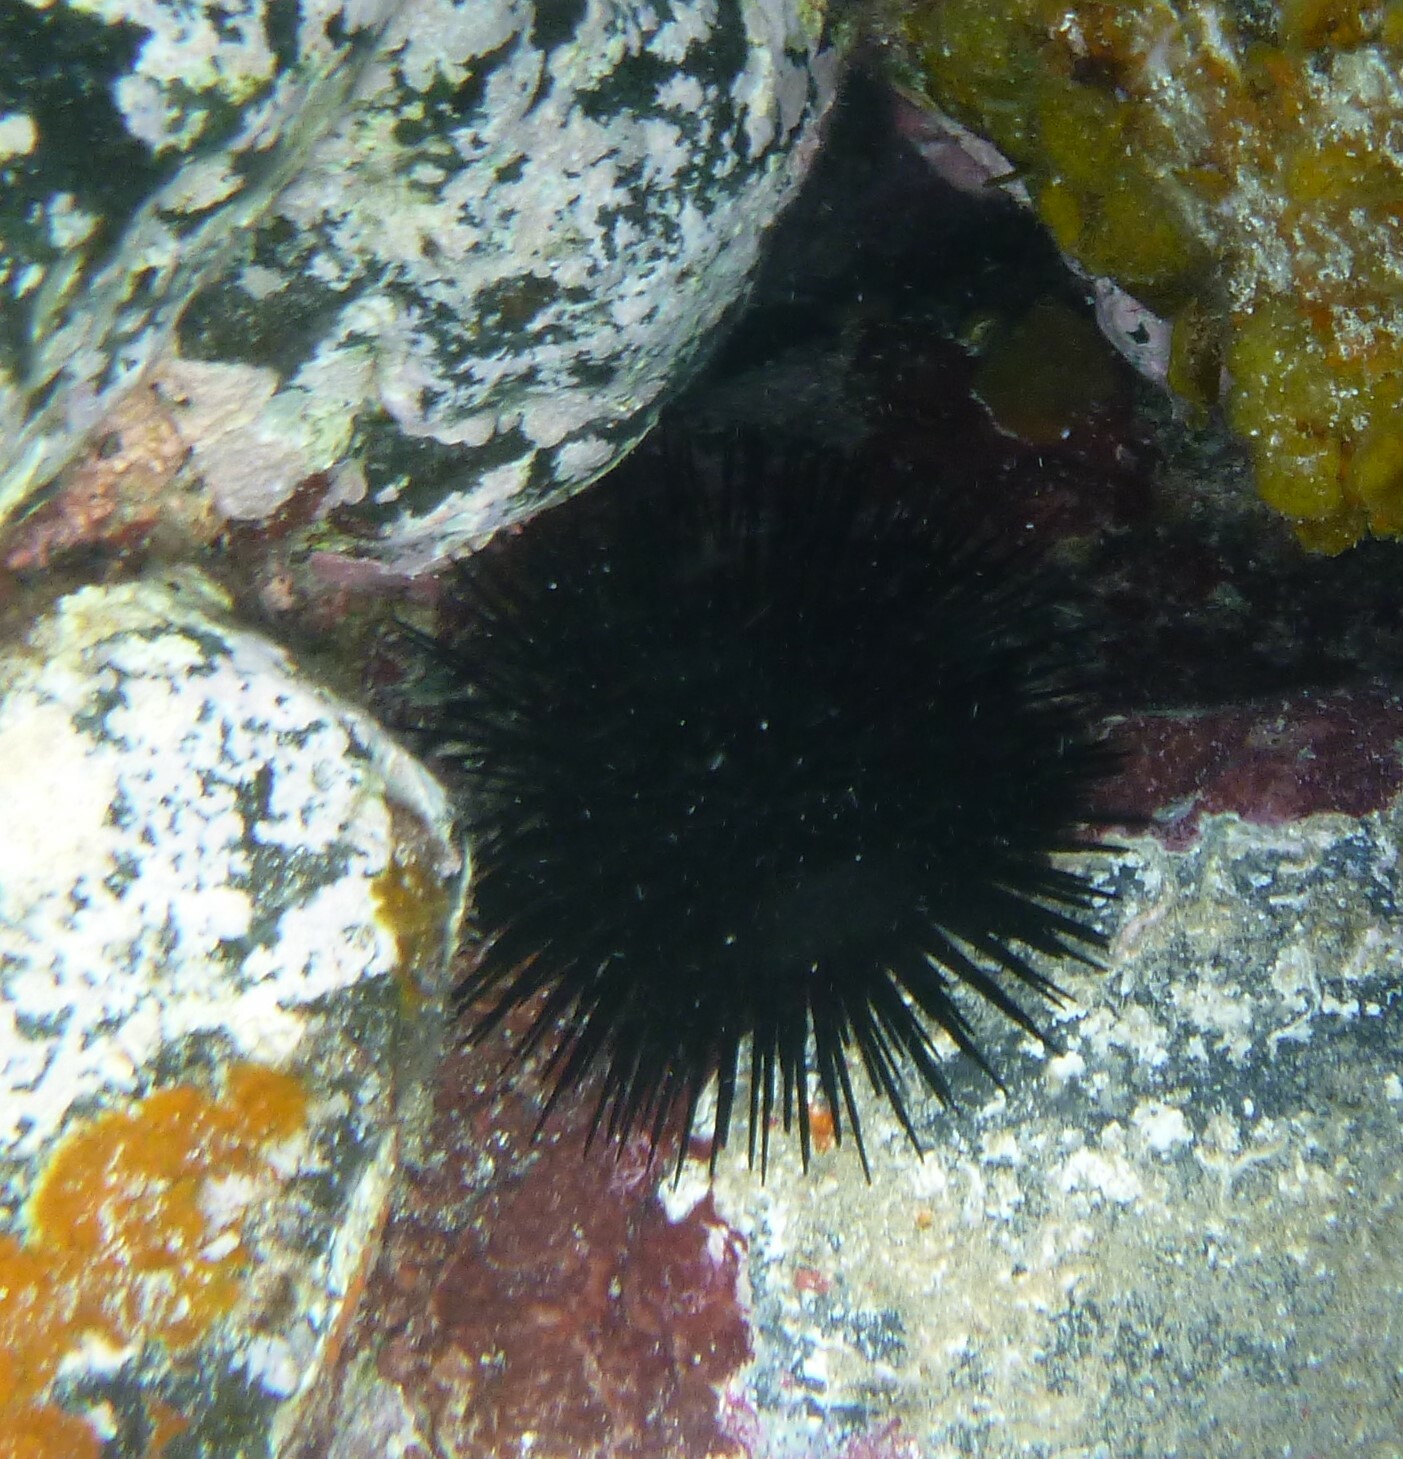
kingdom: Animalia
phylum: Echinodermata
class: Echinoidea
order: Arbacioida
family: Arbaciidae
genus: Arbacia
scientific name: Arbacia lixula
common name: Black sea urchin
